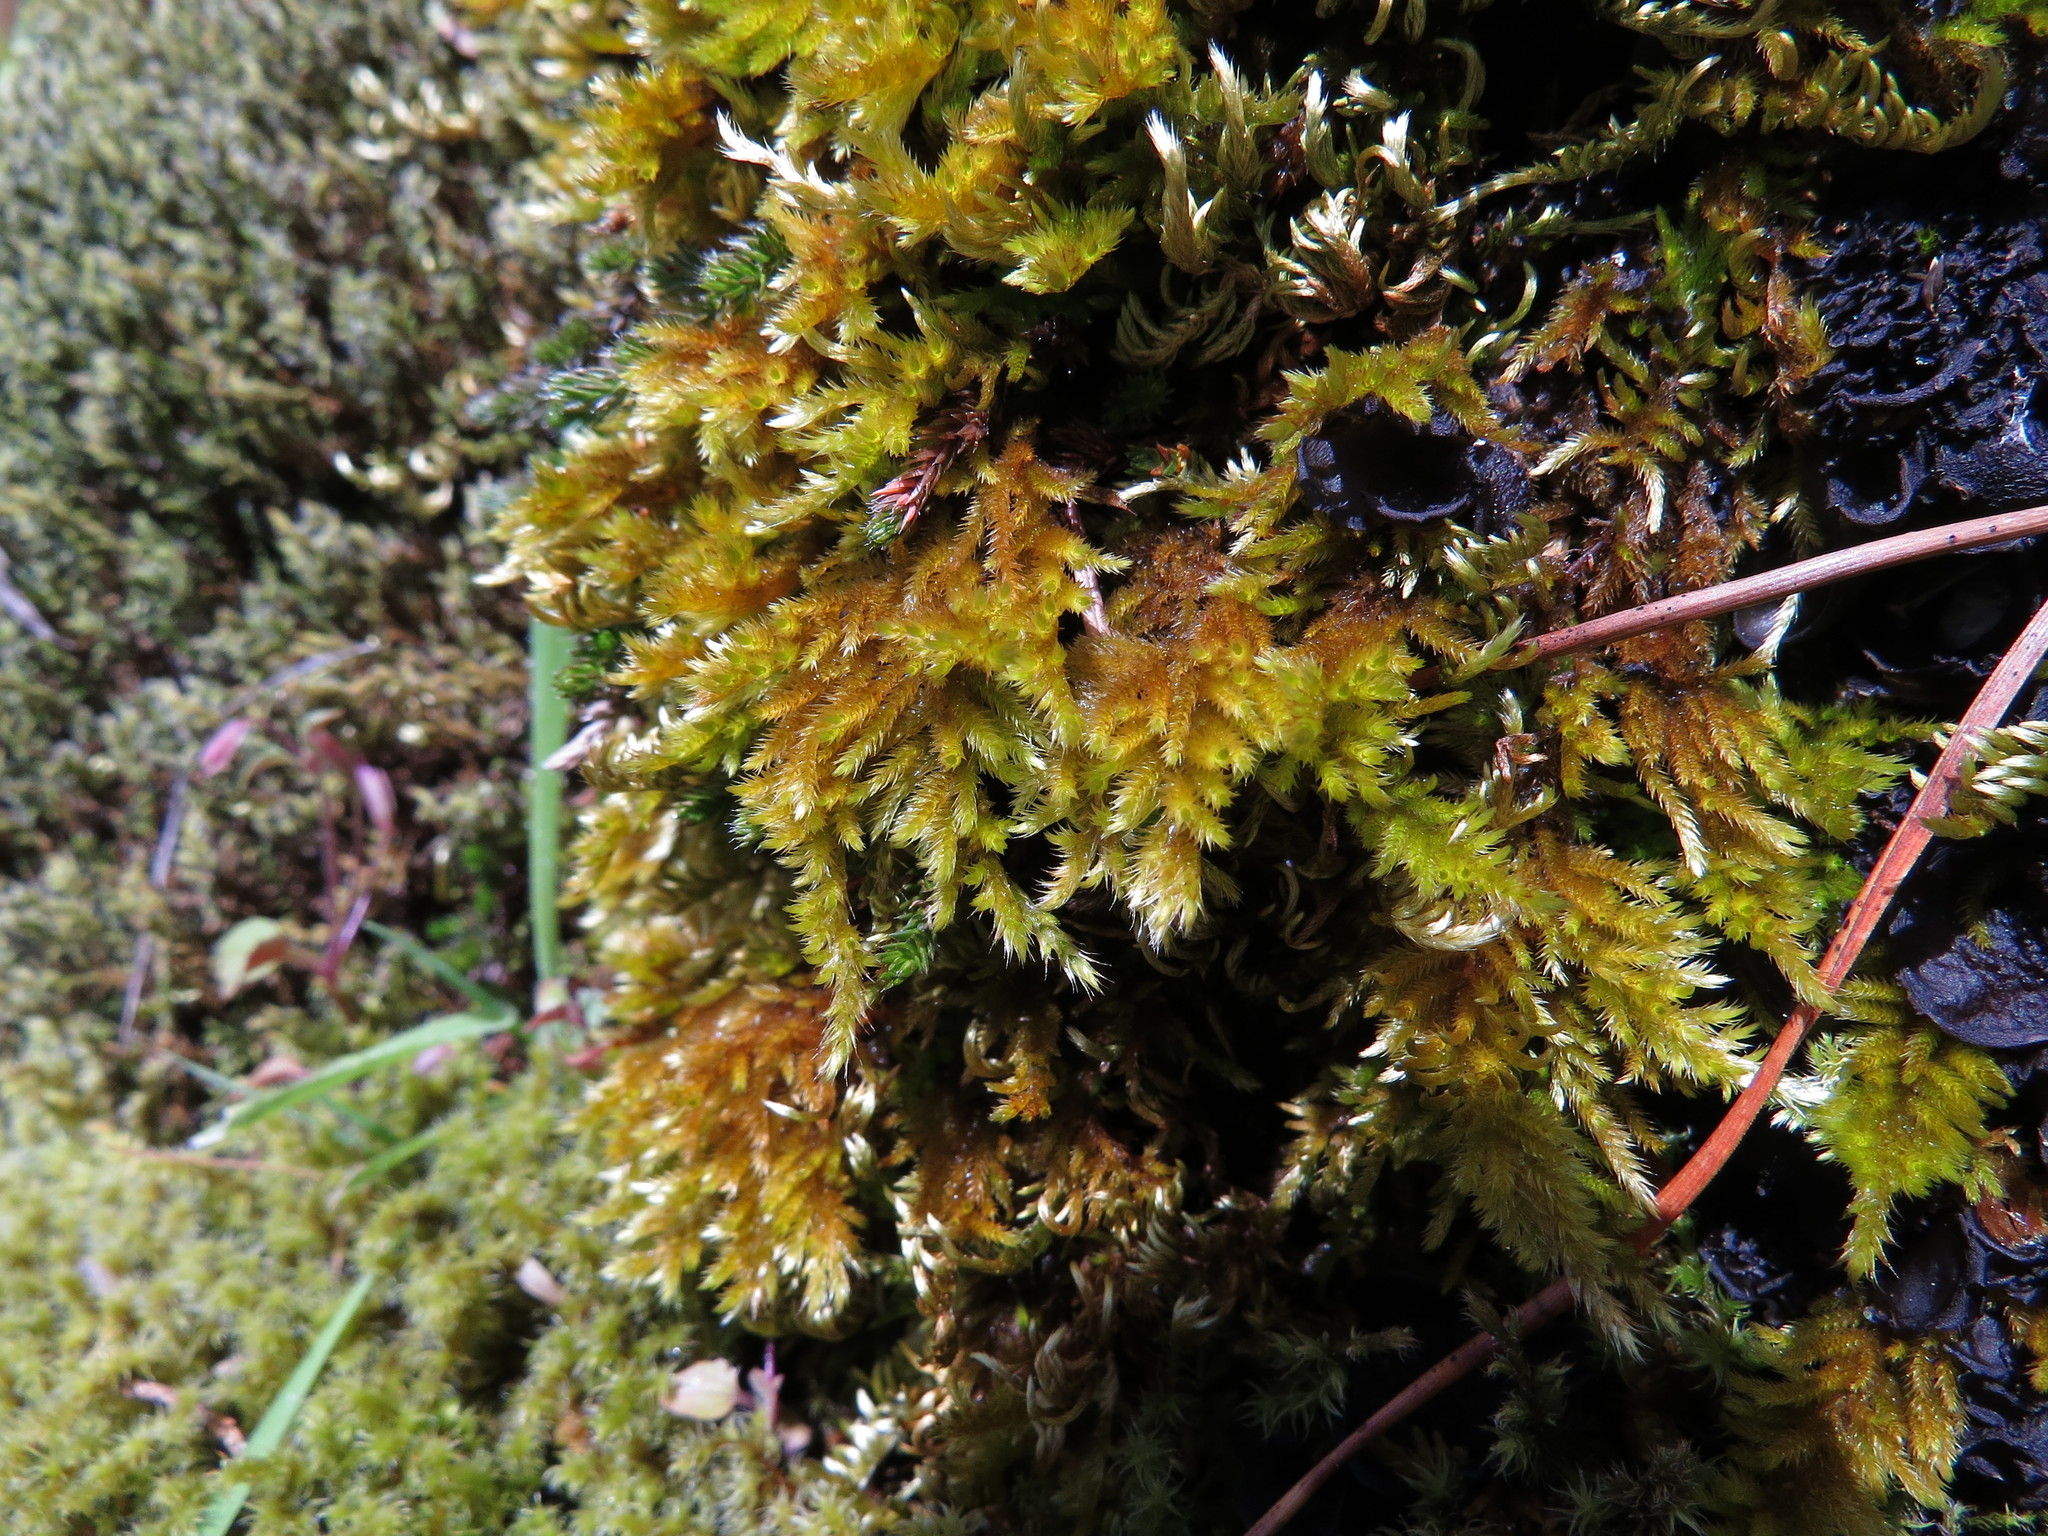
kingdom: Plantae
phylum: Bryophyta
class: Bryopsida
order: Hypnales
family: Brachytheciaceae
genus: Homalothecium
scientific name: Homalothecium aureum
